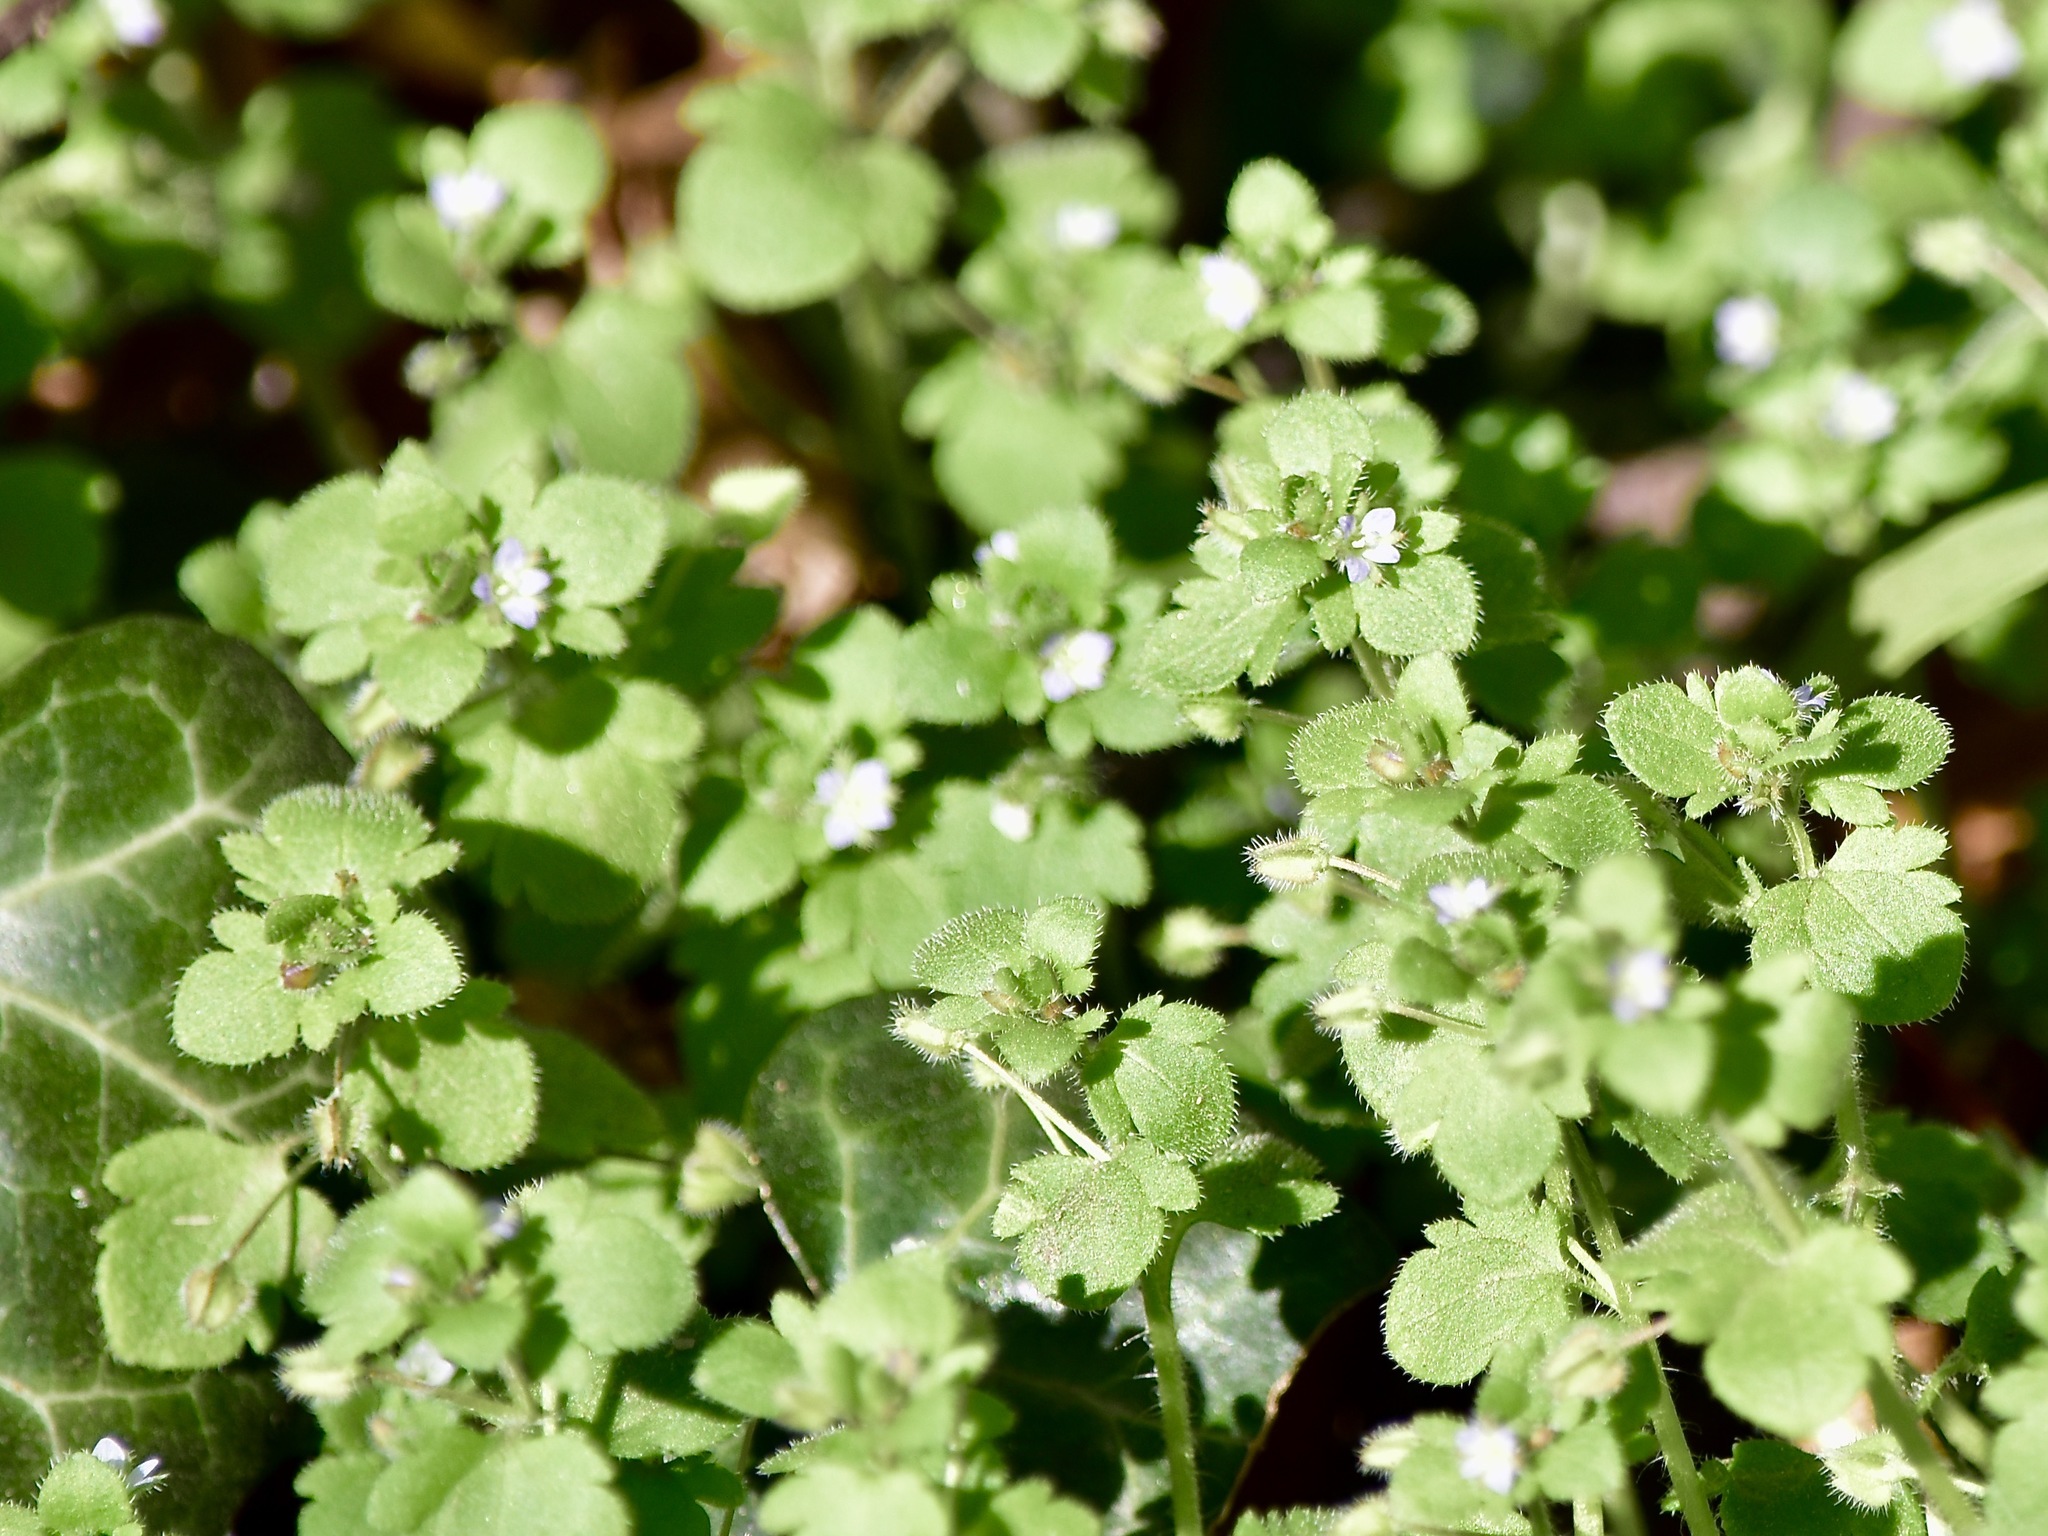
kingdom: Plantae
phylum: Tracheophyta
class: Magnoliopsida
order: Lamiales
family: Plantaginaceae
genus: Veronica
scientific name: Veronica sublobata
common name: False ivy-leaved speedwell
